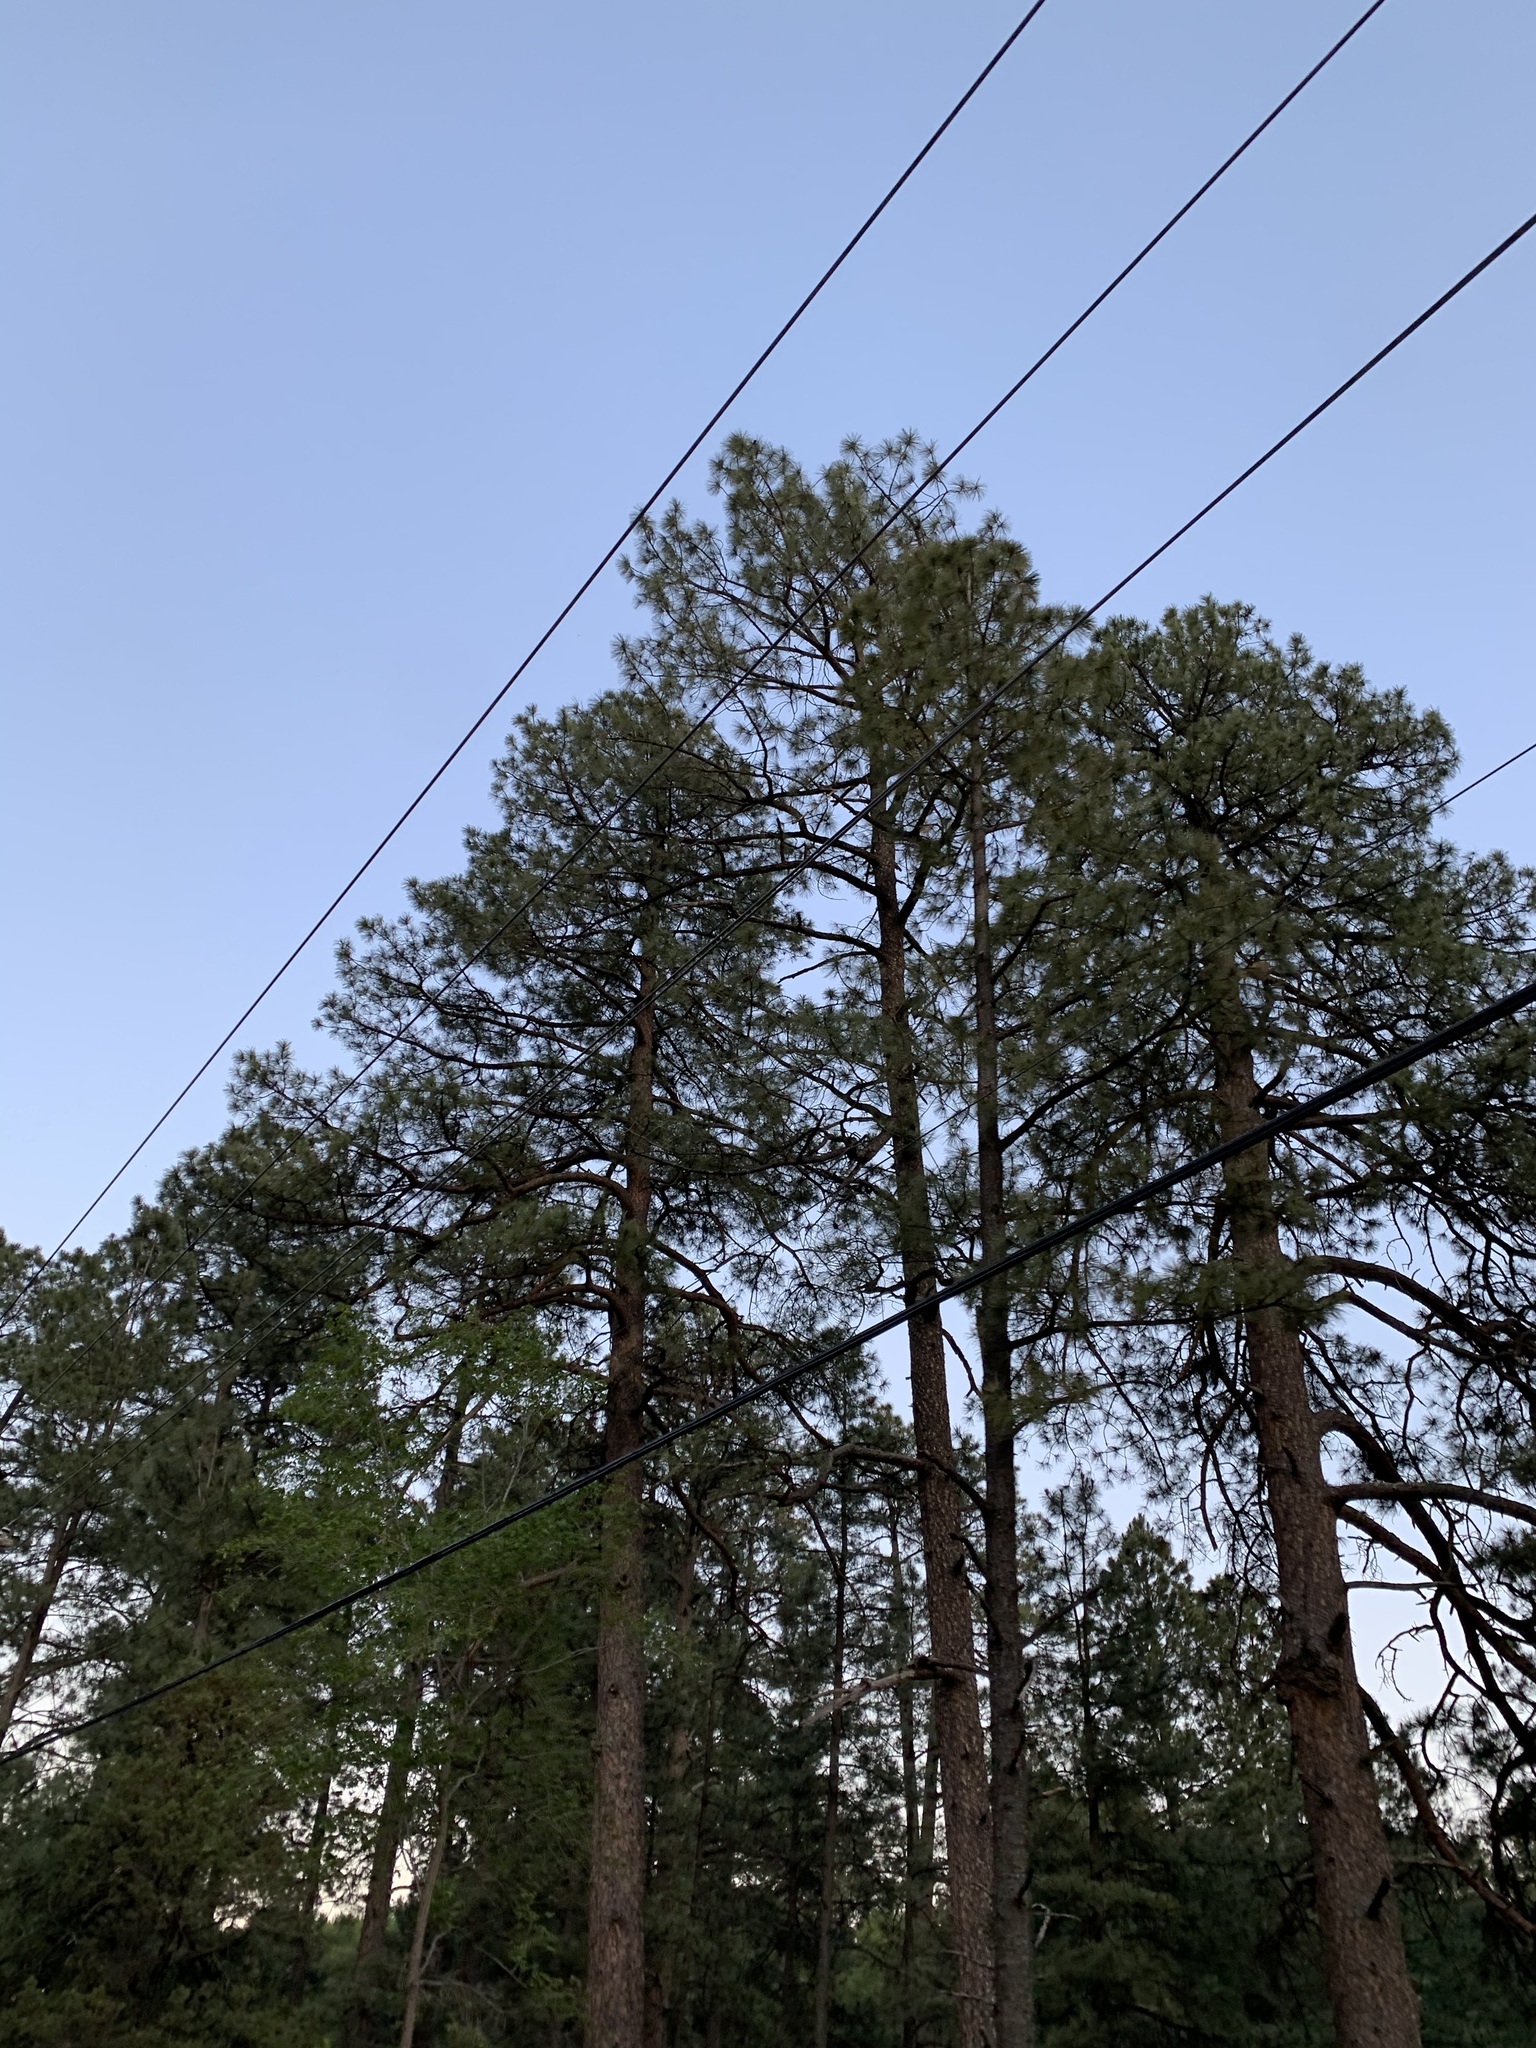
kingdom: Plantae
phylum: Tracheophyta
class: Pinopsida
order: Pinales
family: Pinaceae
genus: Pinus
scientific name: Pinus ponderosa
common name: Western yellow-pine
